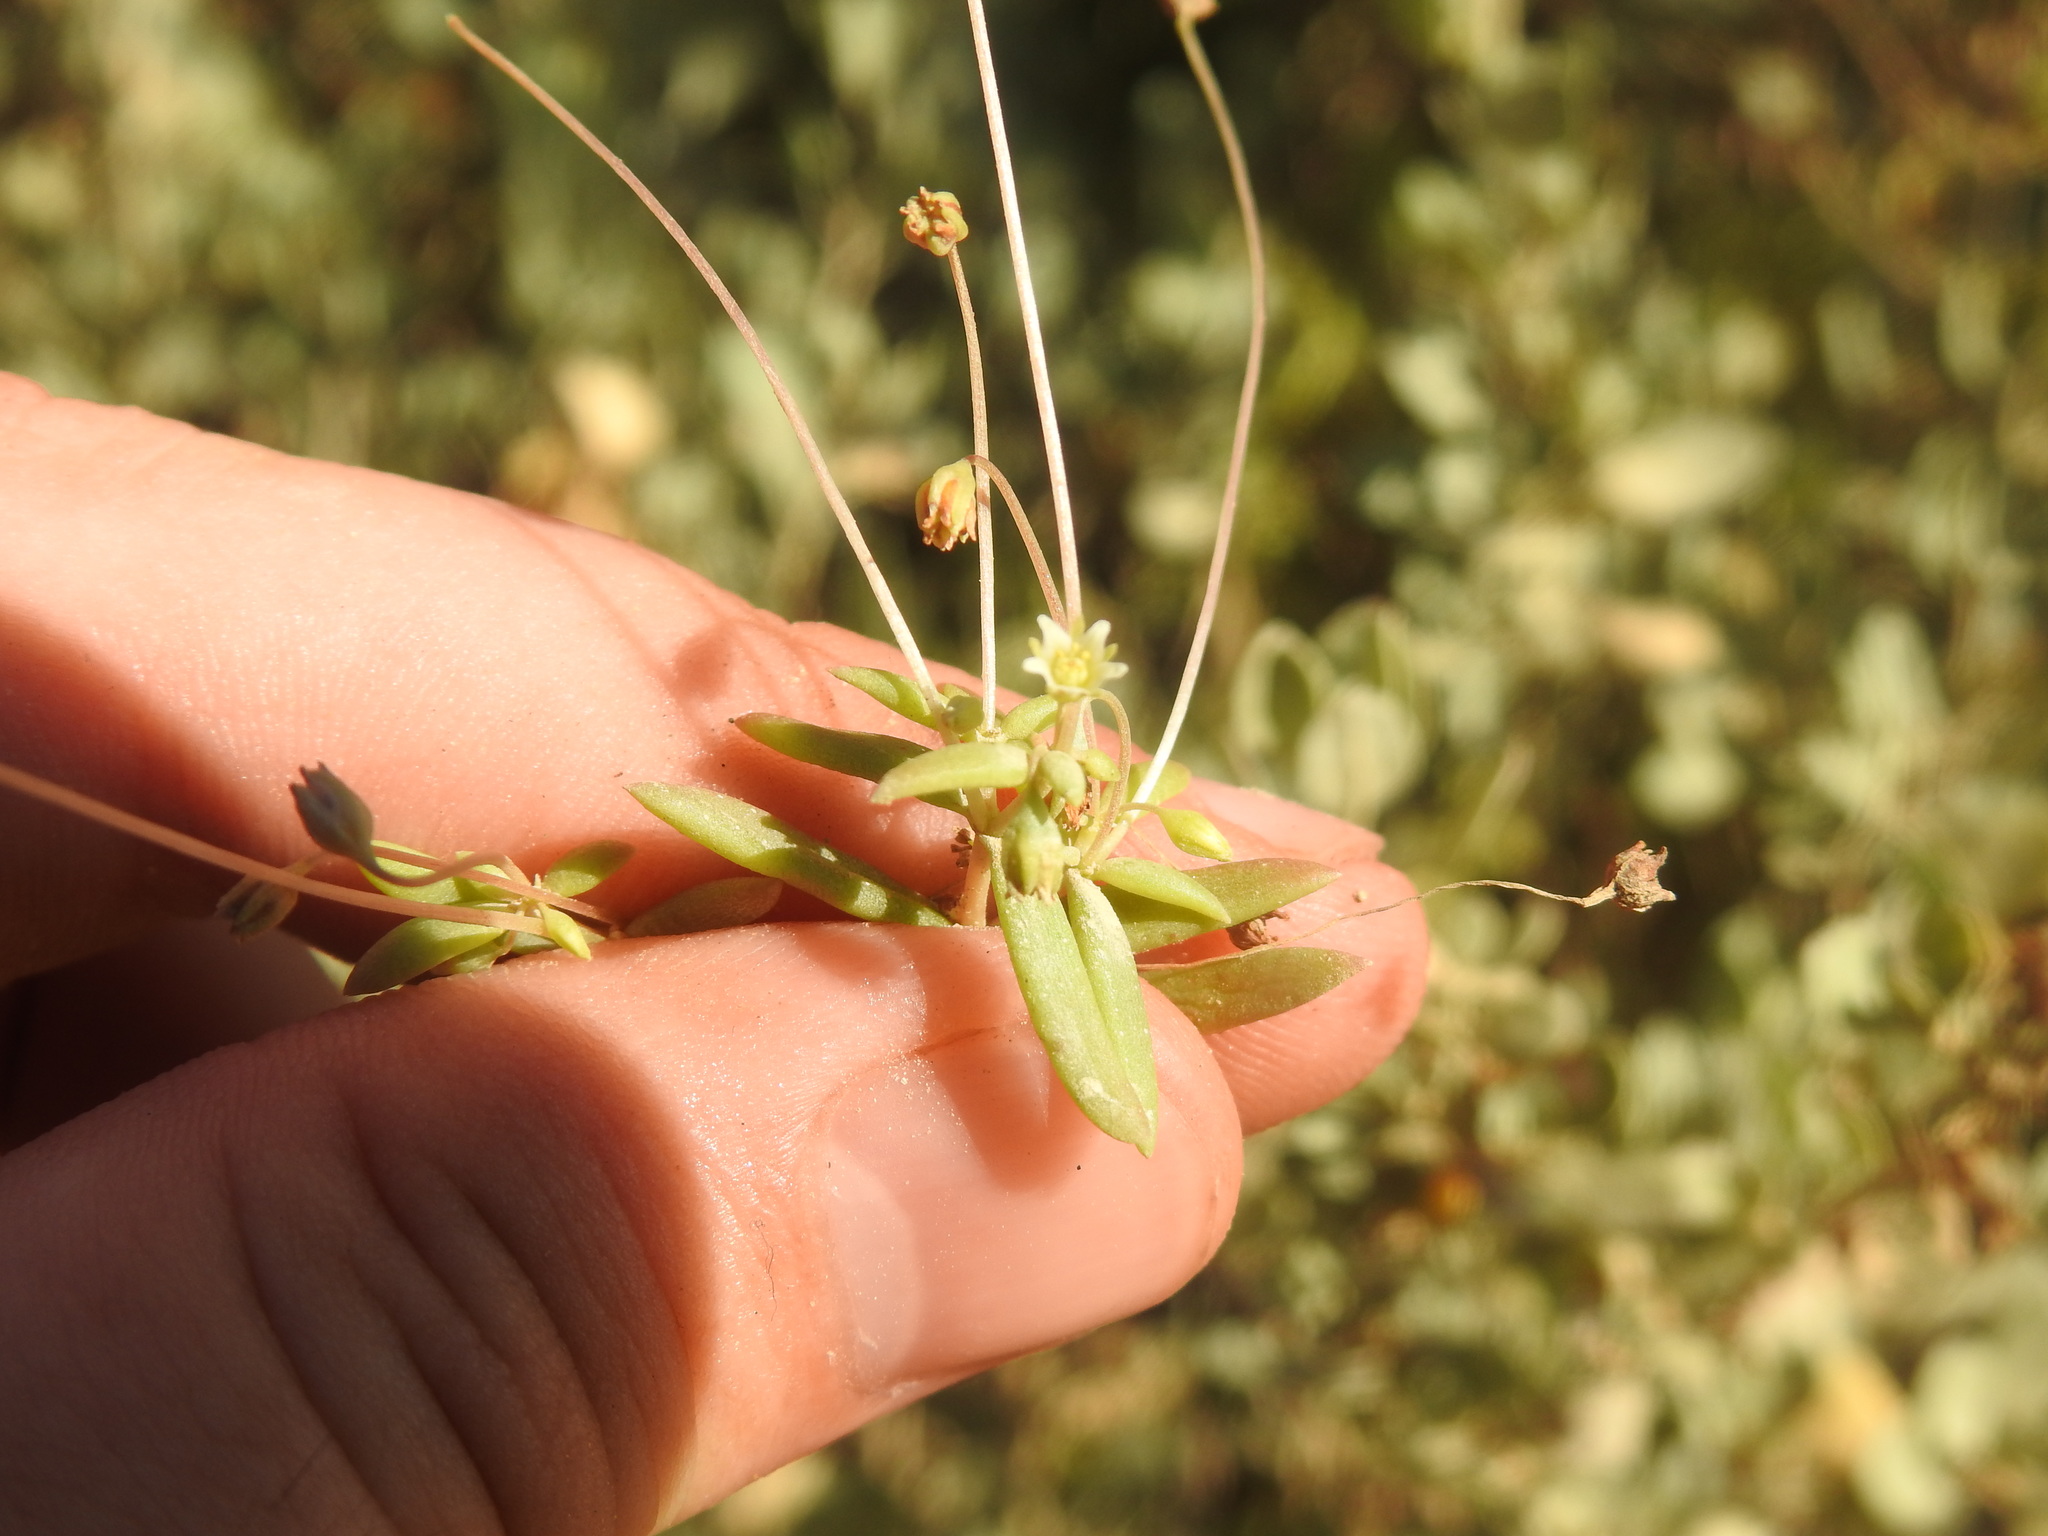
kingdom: Plantae
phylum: Tracheophyta
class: Magnoliopsida
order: Saxifragales
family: Crassulaceae
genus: Crassula
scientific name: Crassula expansa
